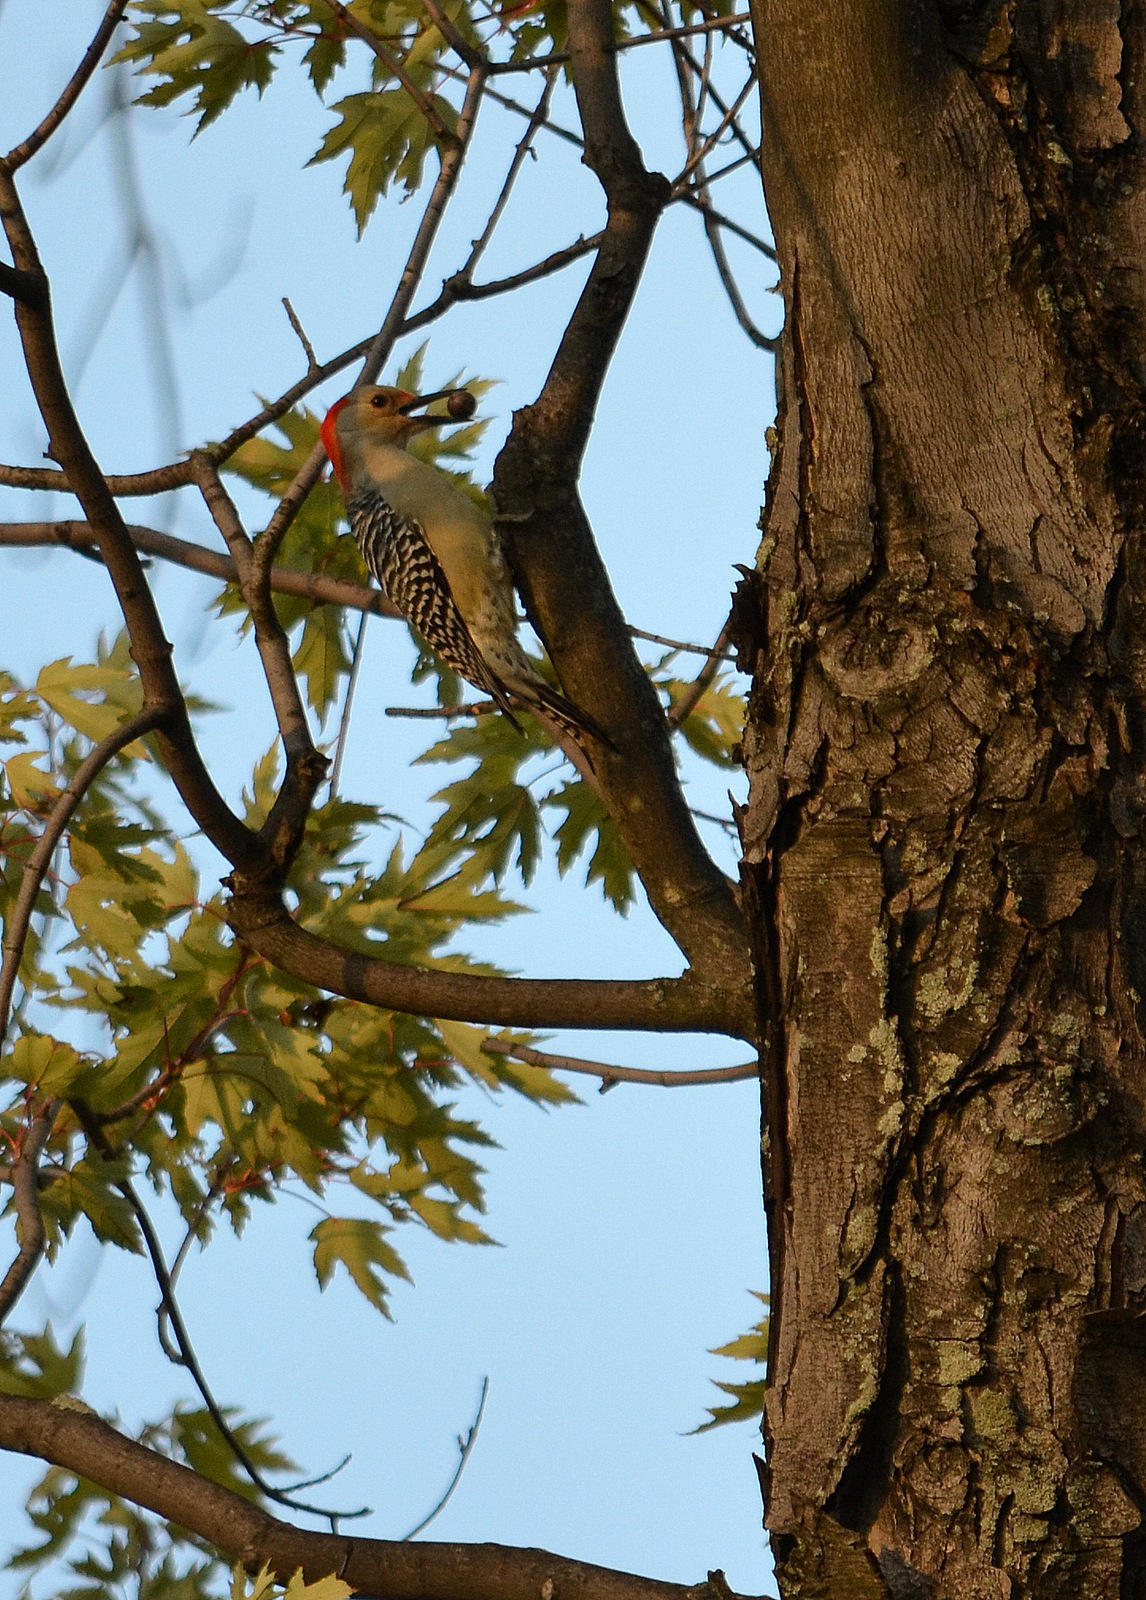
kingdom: Animalia
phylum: Chordata
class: Aves
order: Piciformes
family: Picidae
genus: Melanerpes
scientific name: Melanerpes carolinus
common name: Red-bellied woodpecker
